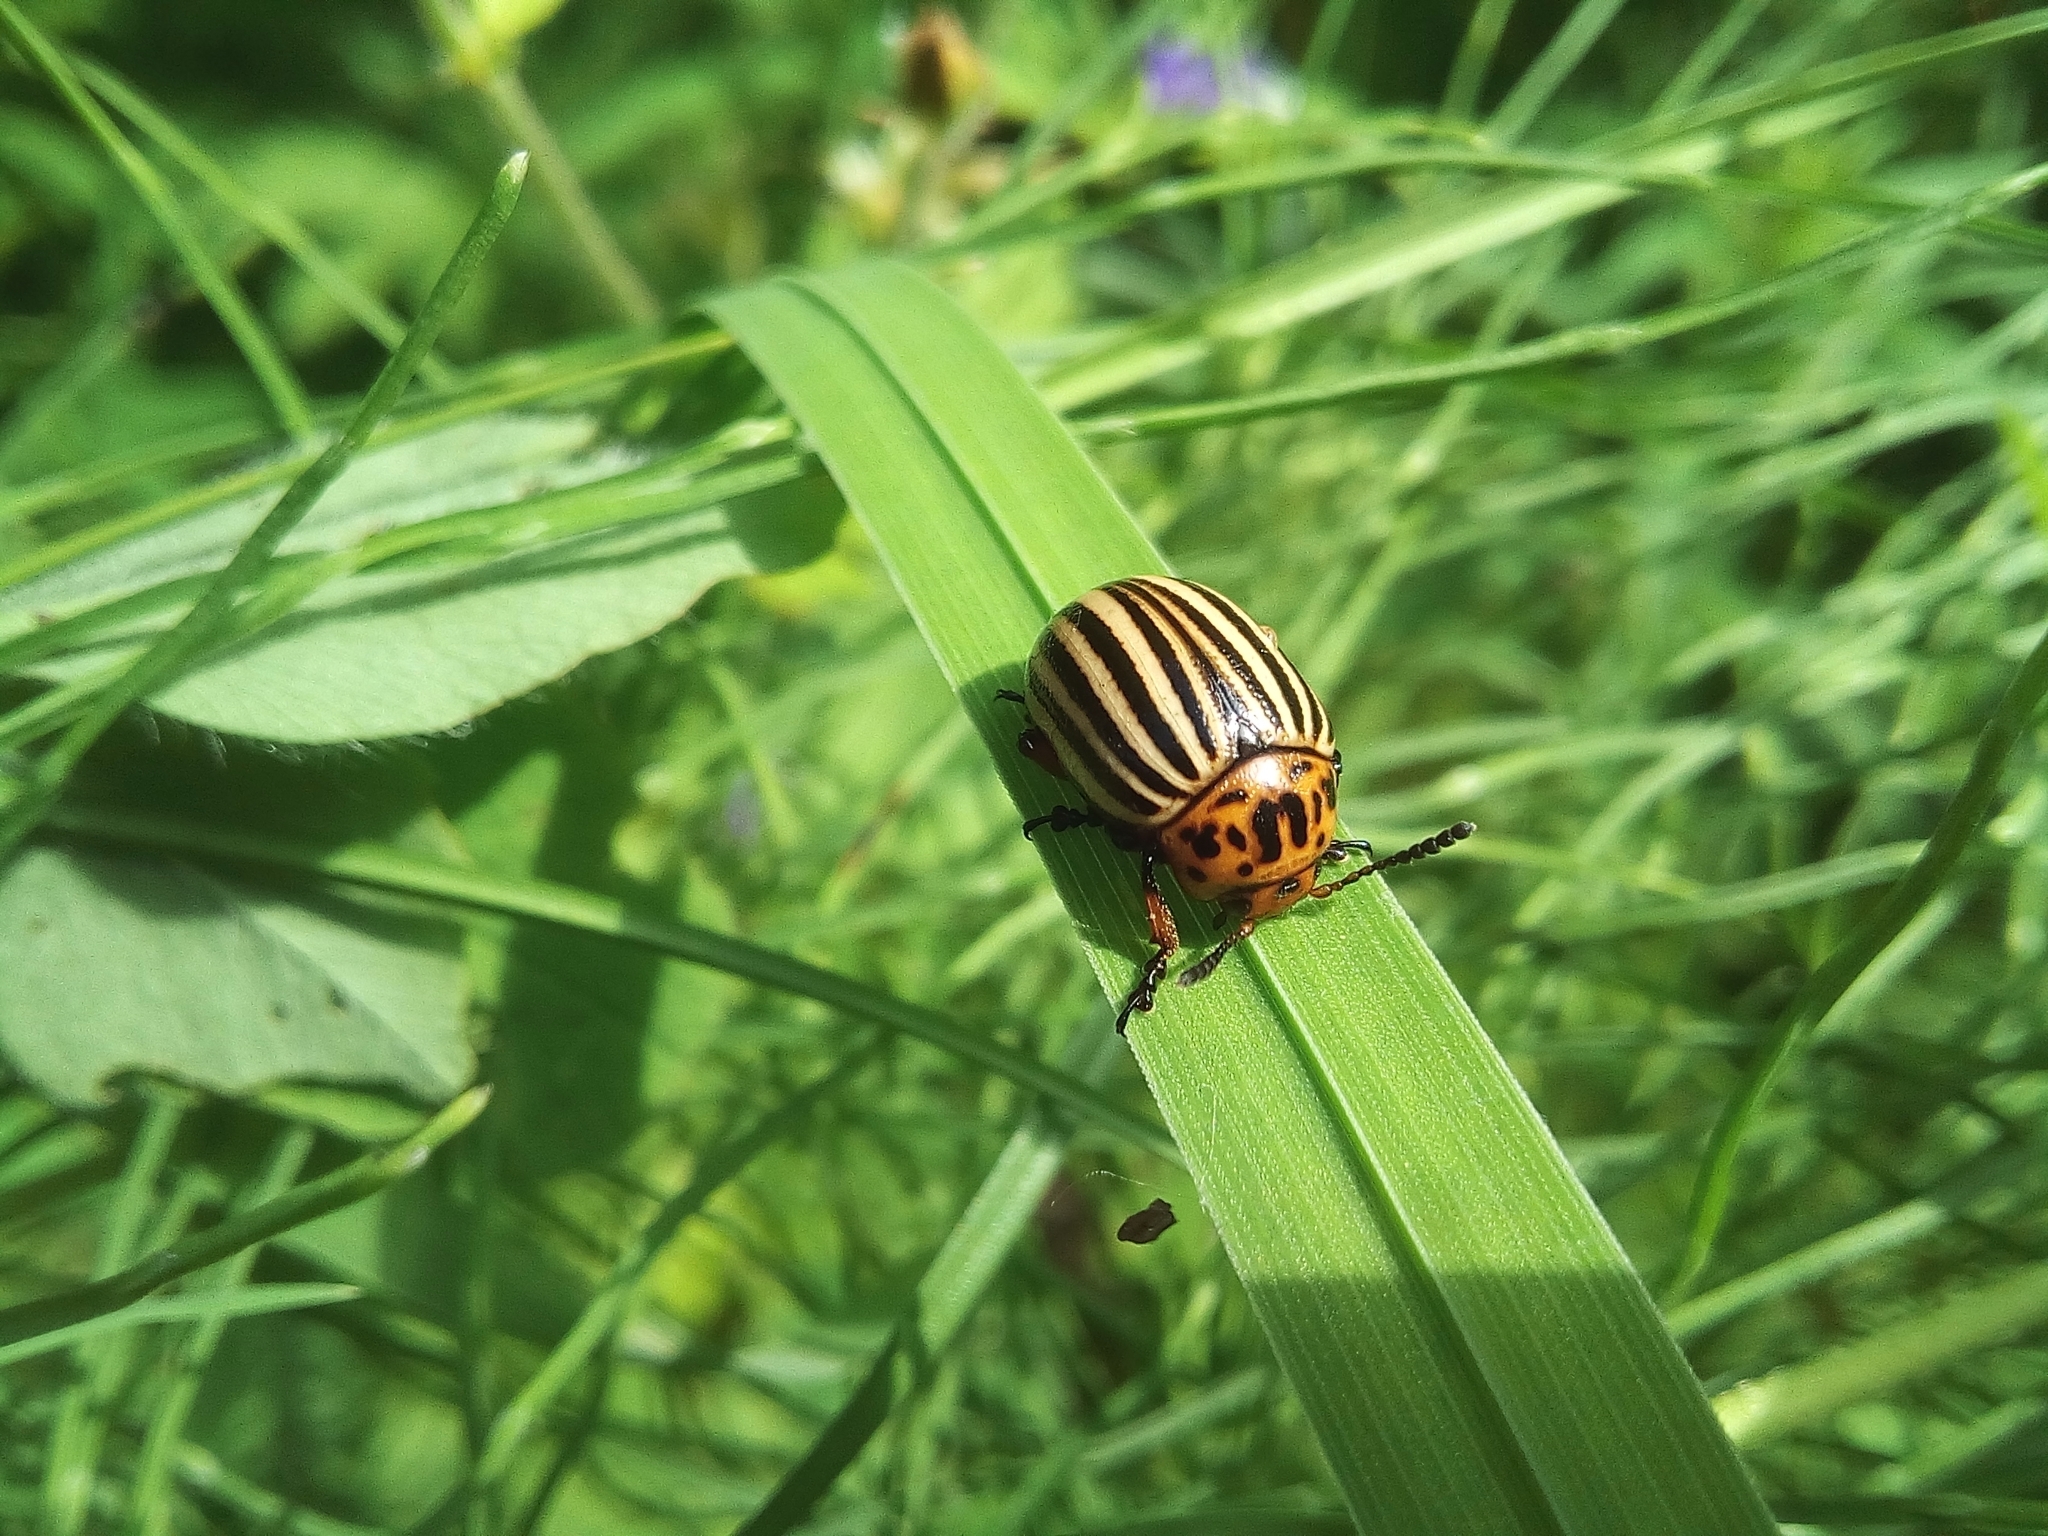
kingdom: Animalia
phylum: Arthropoda
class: Insecta
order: Coleoptera
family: Chrysomelidae
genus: Leptinotarsa
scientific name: Leptinotarsa decemlineata
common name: Colorado potato beetle
